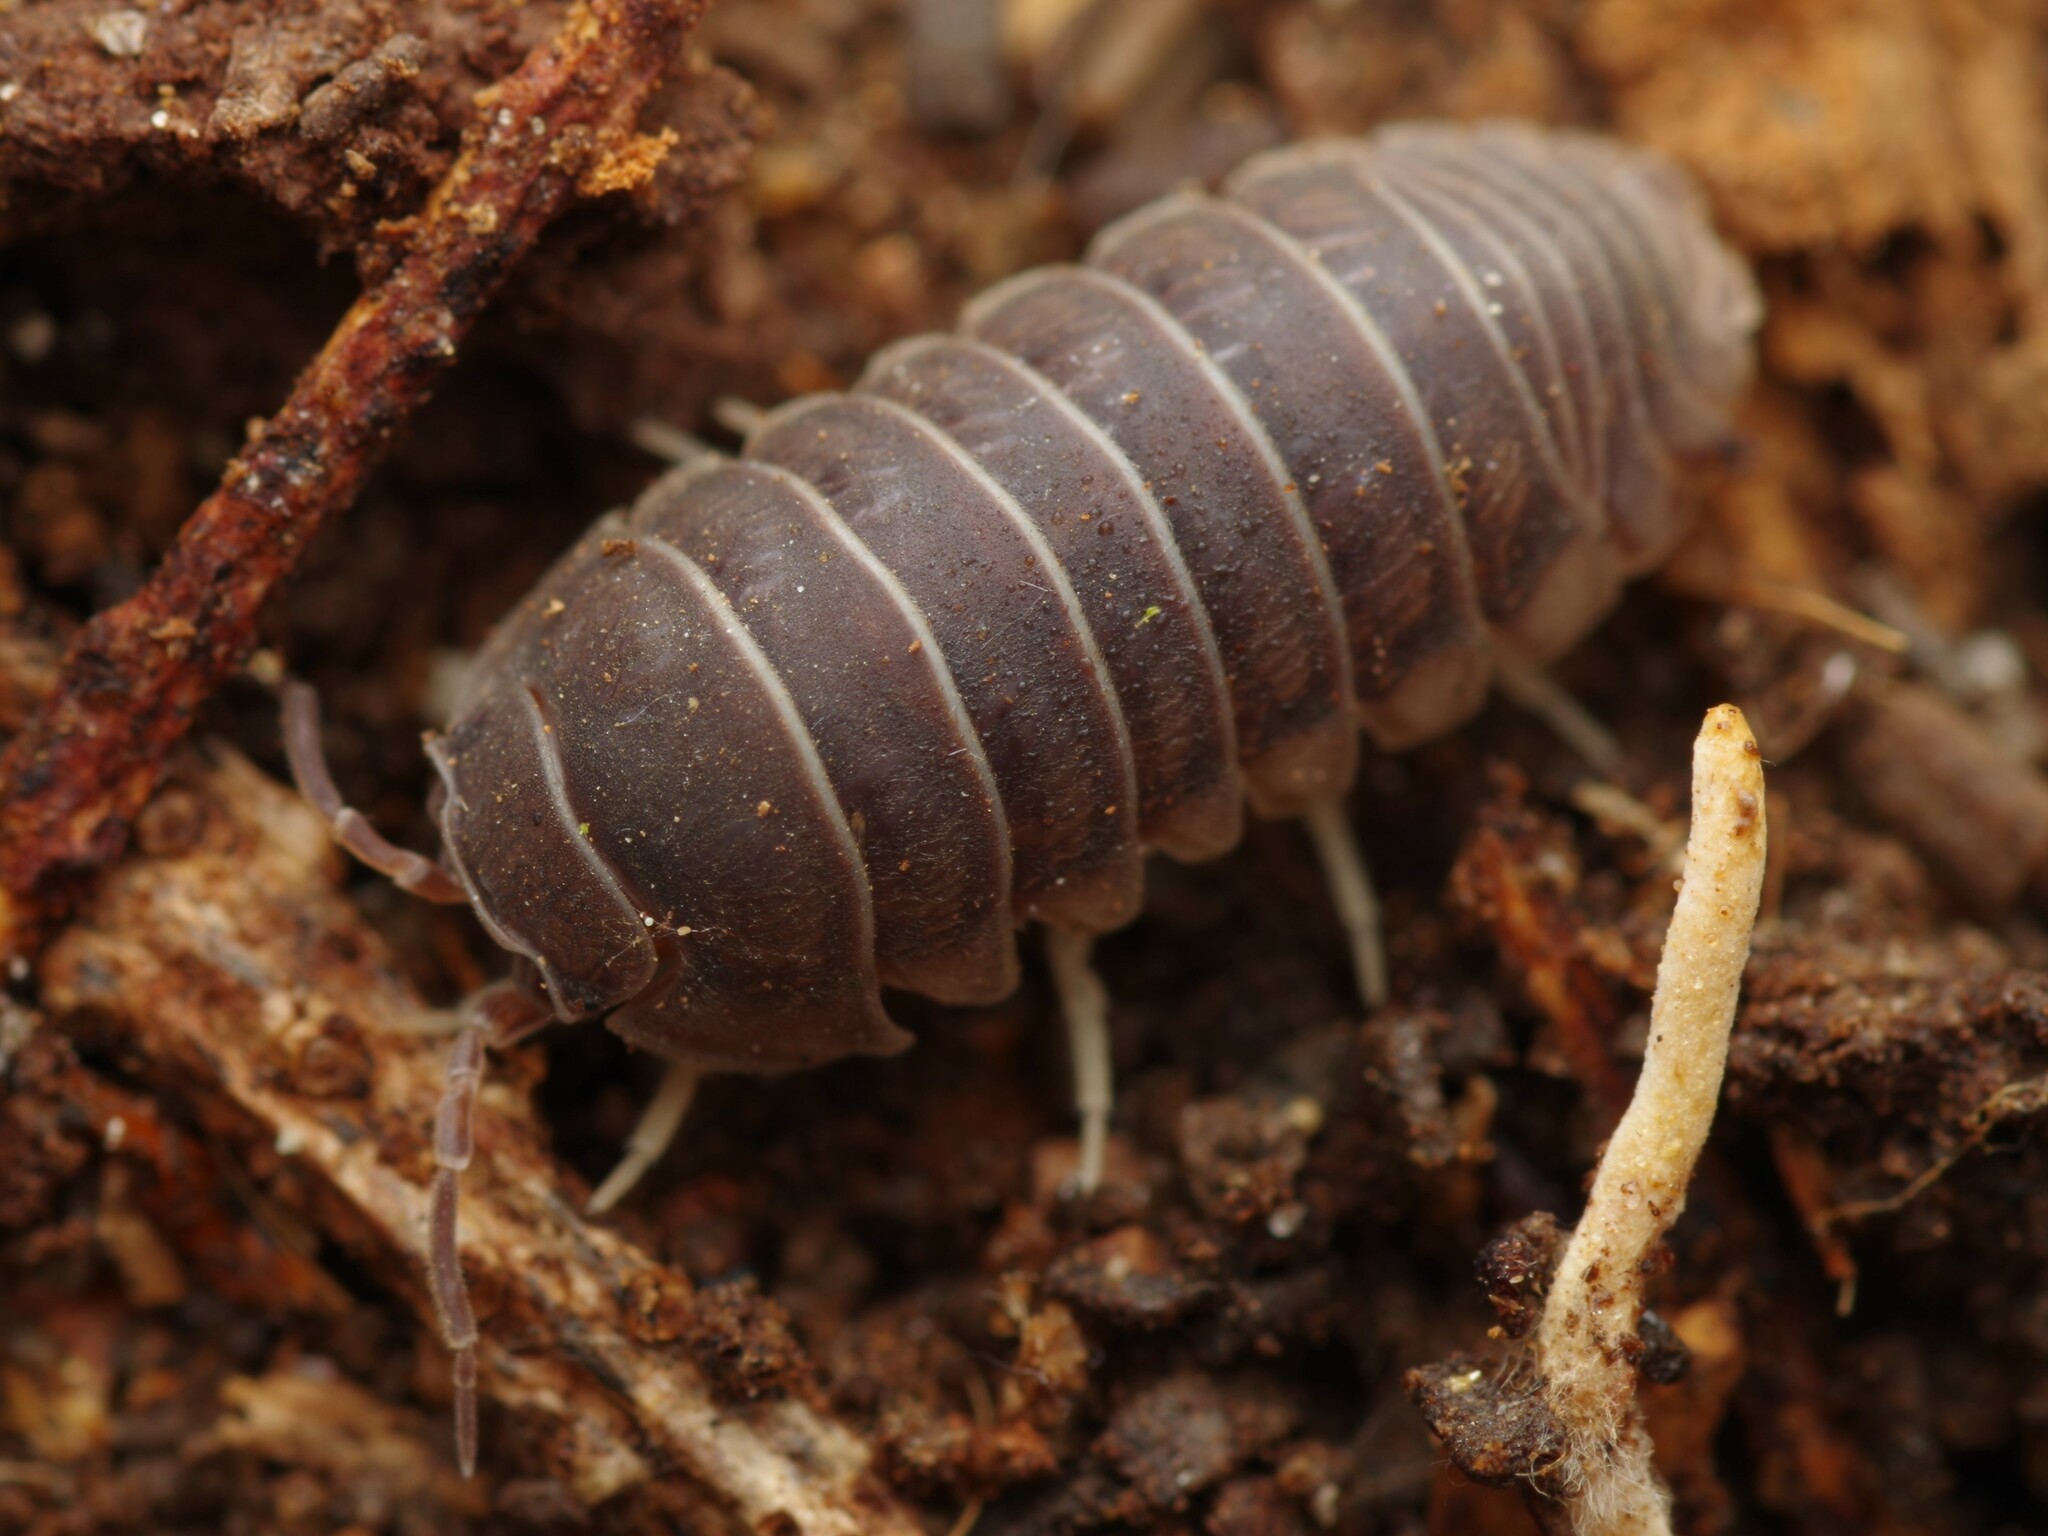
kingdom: Animalia
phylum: Arthropoda
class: Malacostraca
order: Isopoda
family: Armadillidiidae
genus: Eluma
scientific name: Eluma caelata
